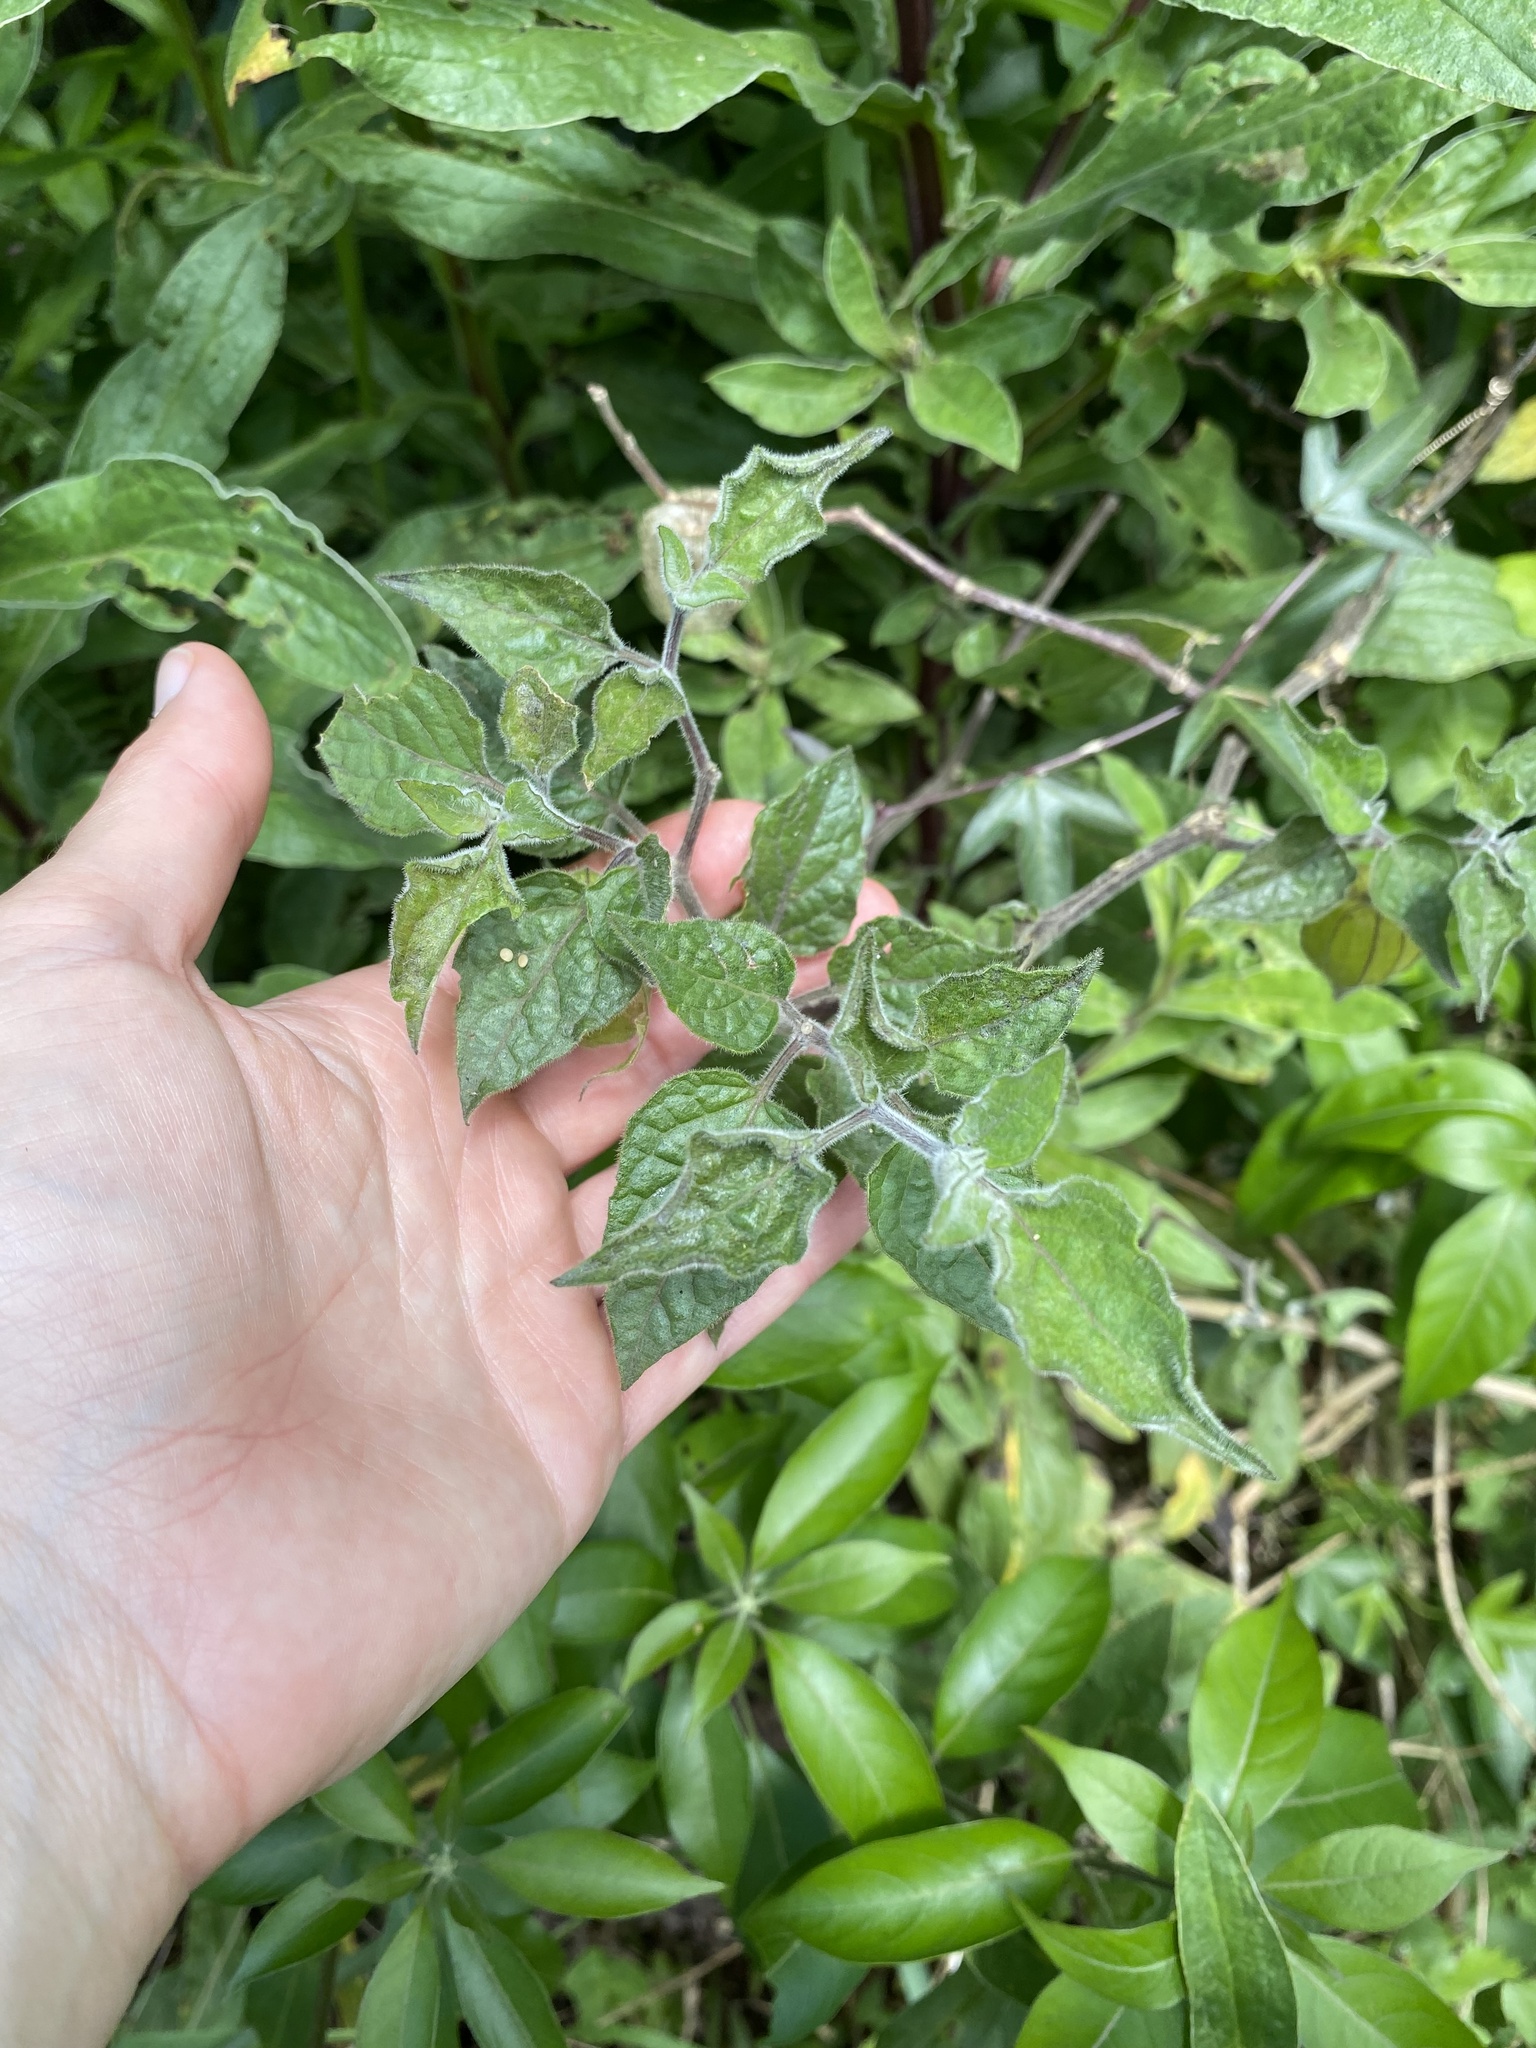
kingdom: Plantae
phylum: Tracheophyta
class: Magnoliopsida
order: Solanales
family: Solanaceae
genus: Physalis
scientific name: Physalis peruviana
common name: Cape-gooseberry
